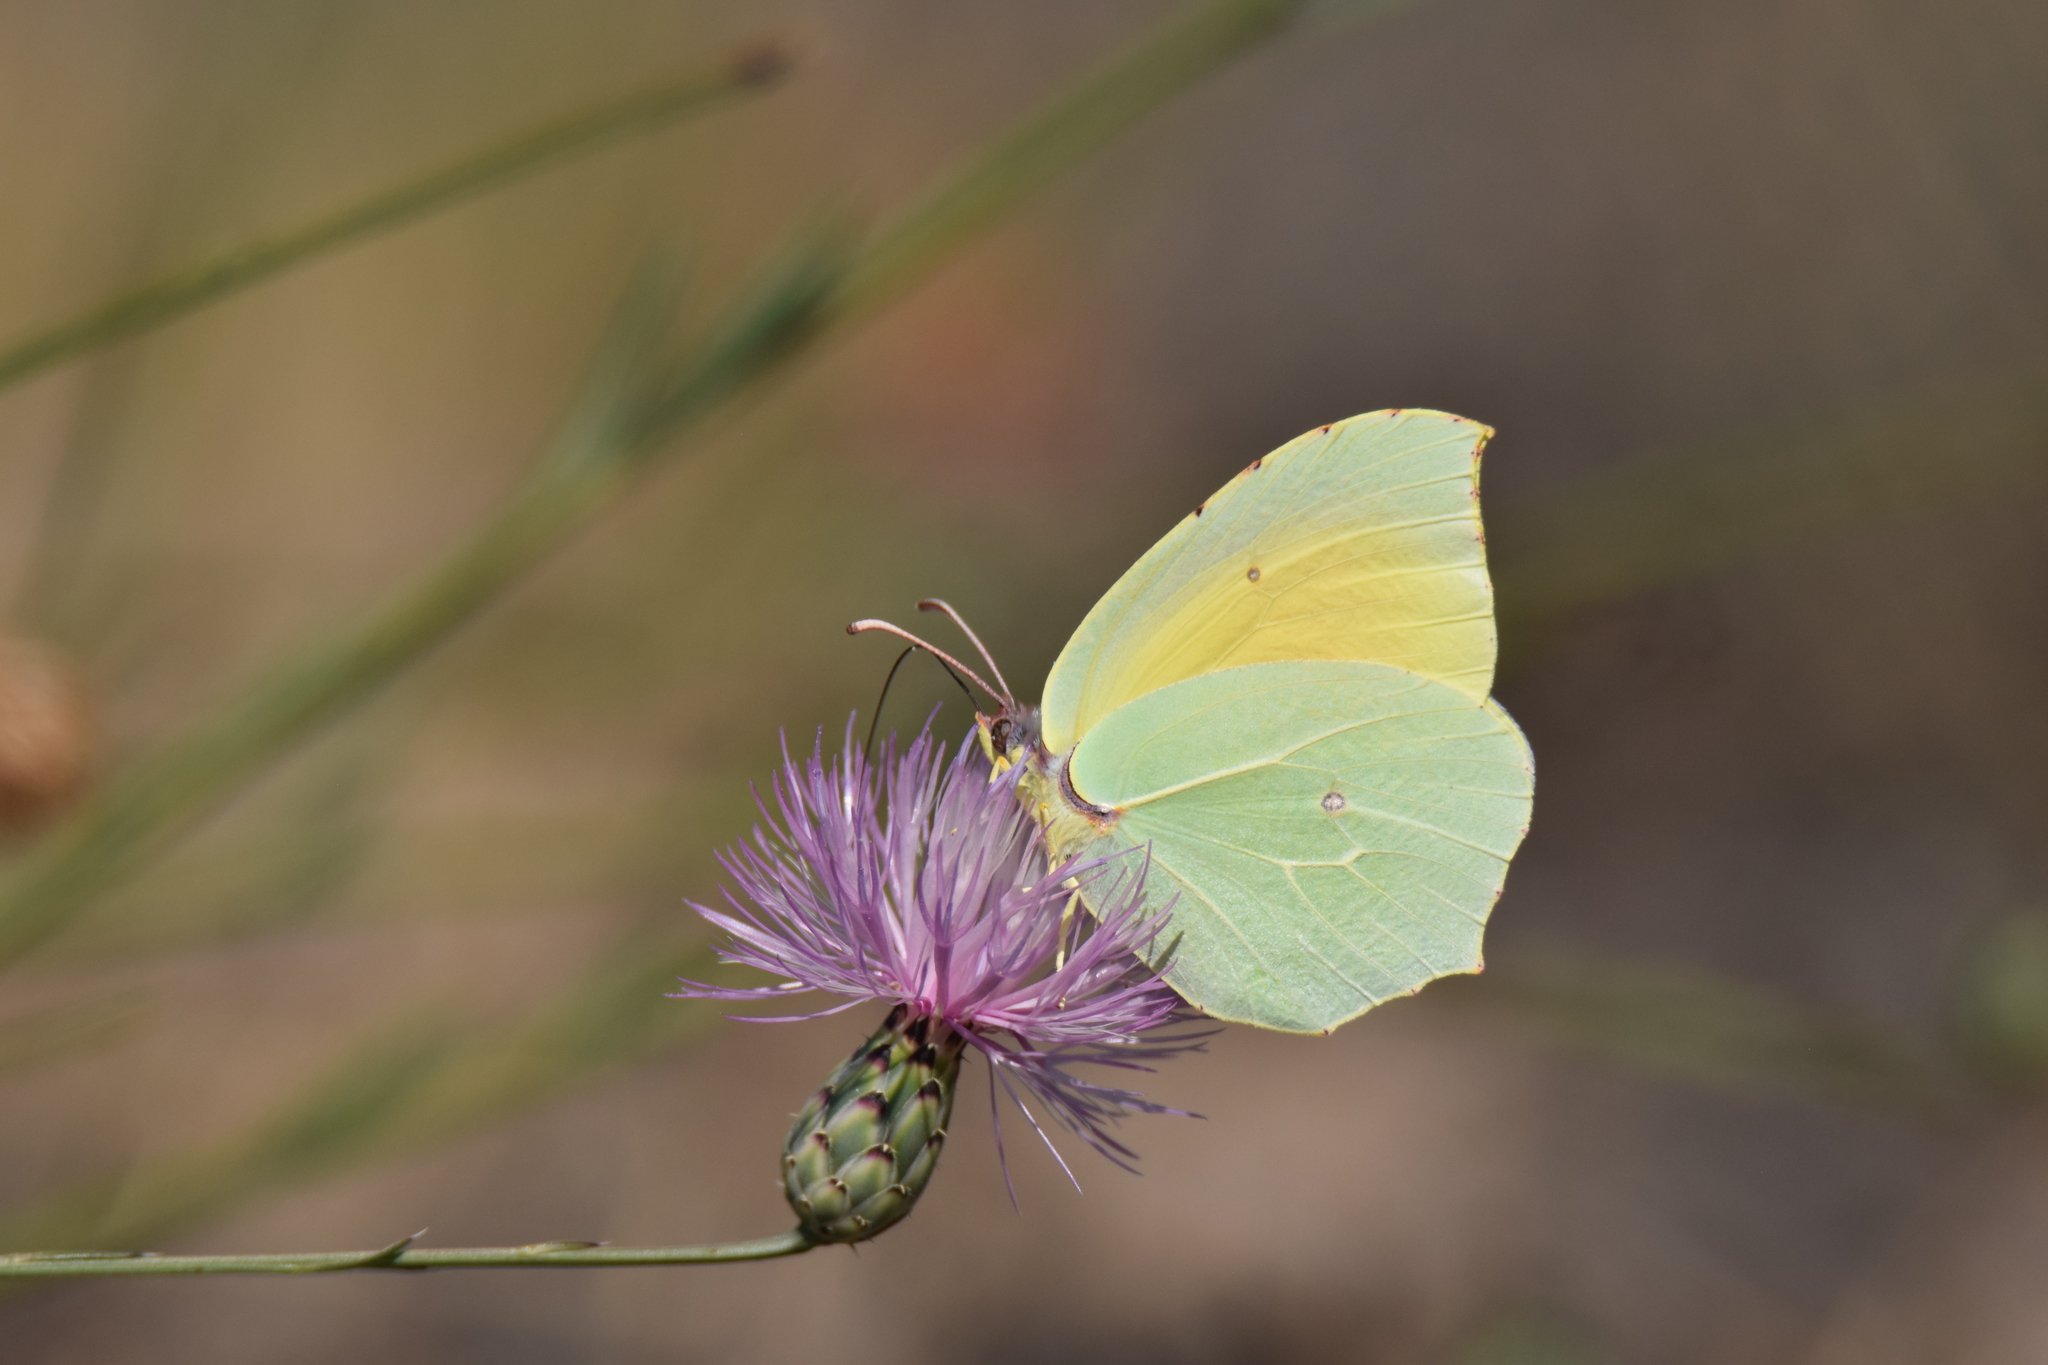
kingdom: Animalia
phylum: Arthropoda
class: Insecta
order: Lepidoptera
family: Pieridae
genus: Gonepteryx
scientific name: Gonepteryx cleopatra
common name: Cleopatra
